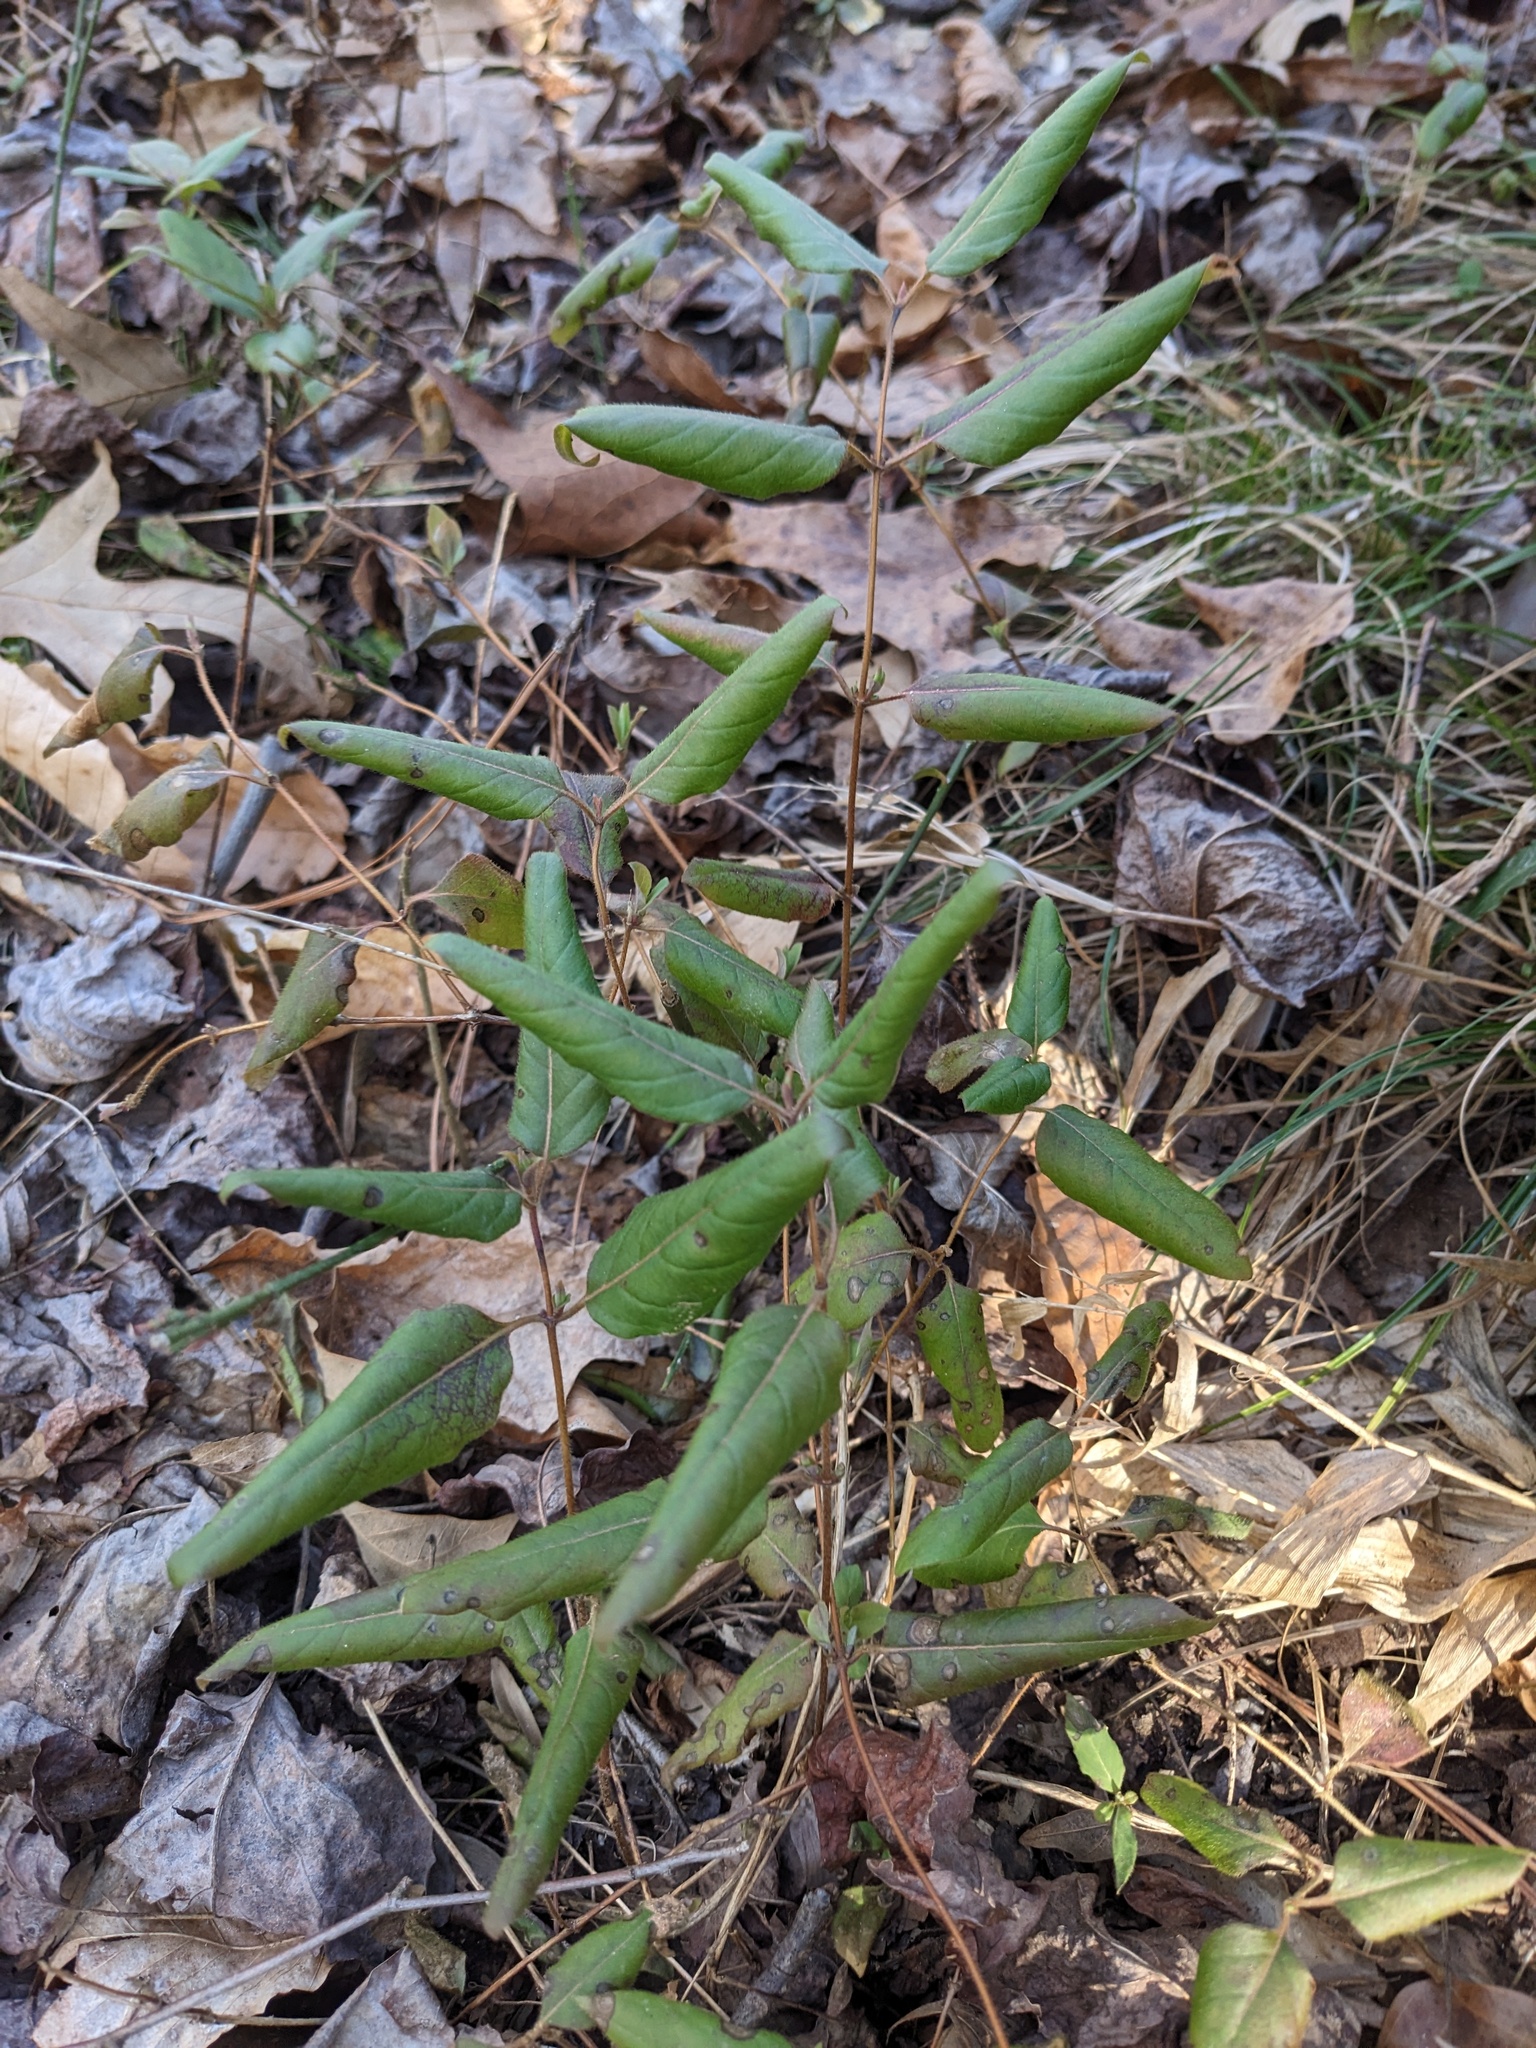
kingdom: Plantae
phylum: Tracheophyta
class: Magnoliopsida
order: Dipsacales
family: Caprifoliaceae
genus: Lonicera
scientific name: Lonicera japonica
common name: Japanese honeysuckle
